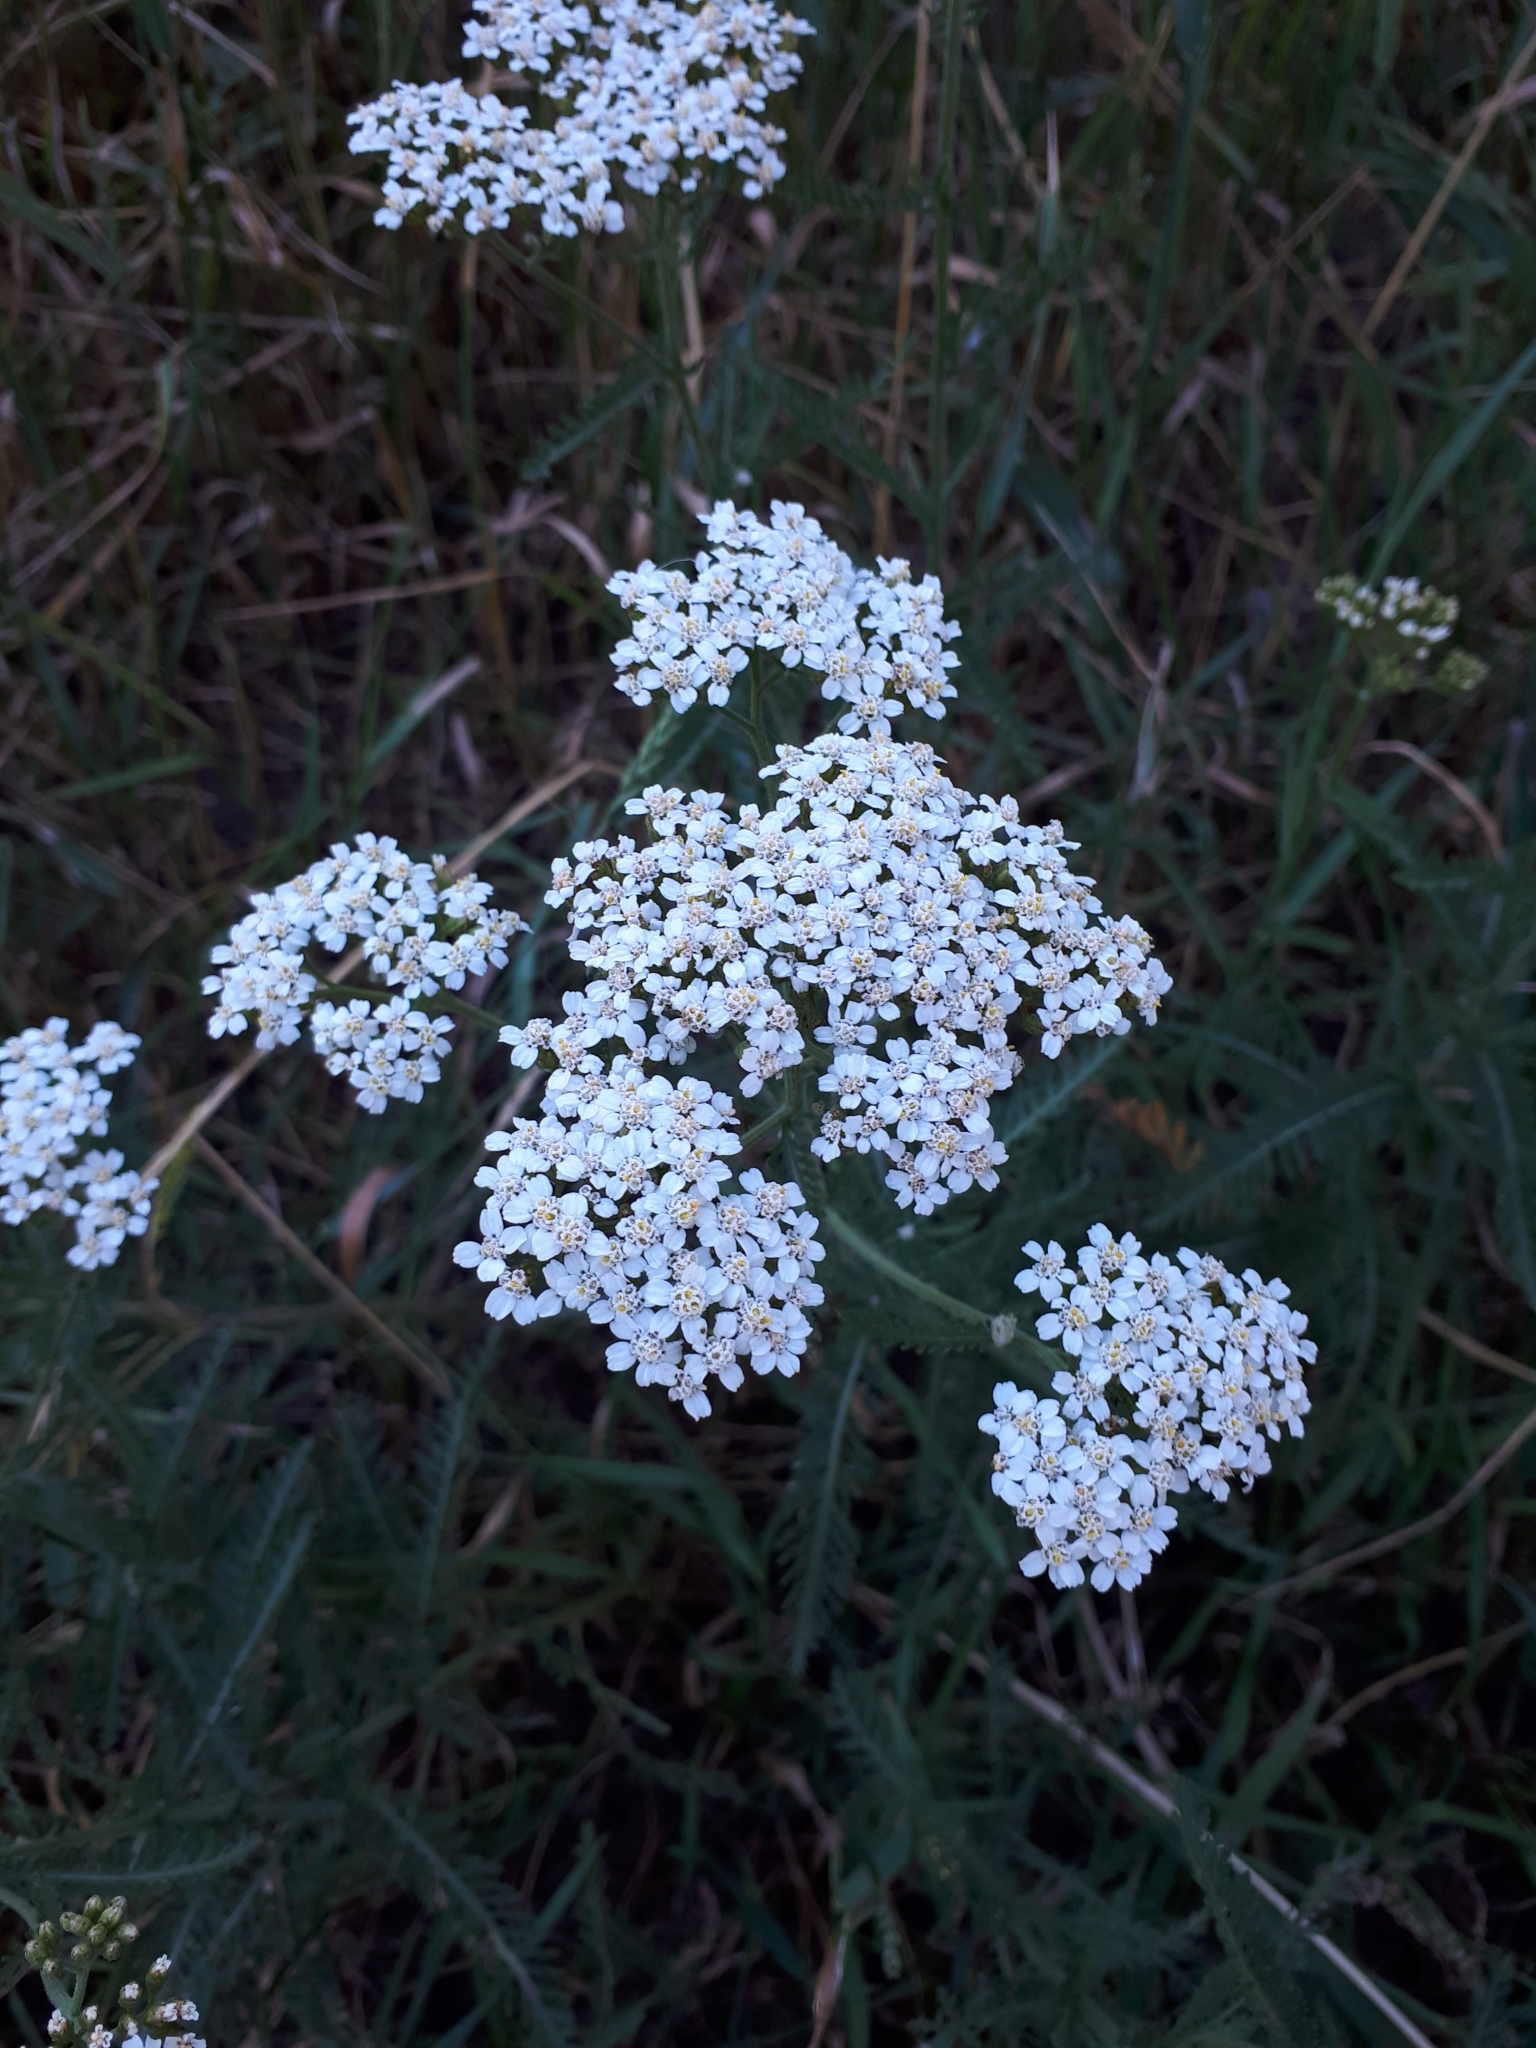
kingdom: Plantae
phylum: Tracheophyta
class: Magnoliopsida
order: Asterales
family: Asteraceae
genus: Achillea
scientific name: Achillea millefolium
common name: Yarrow
